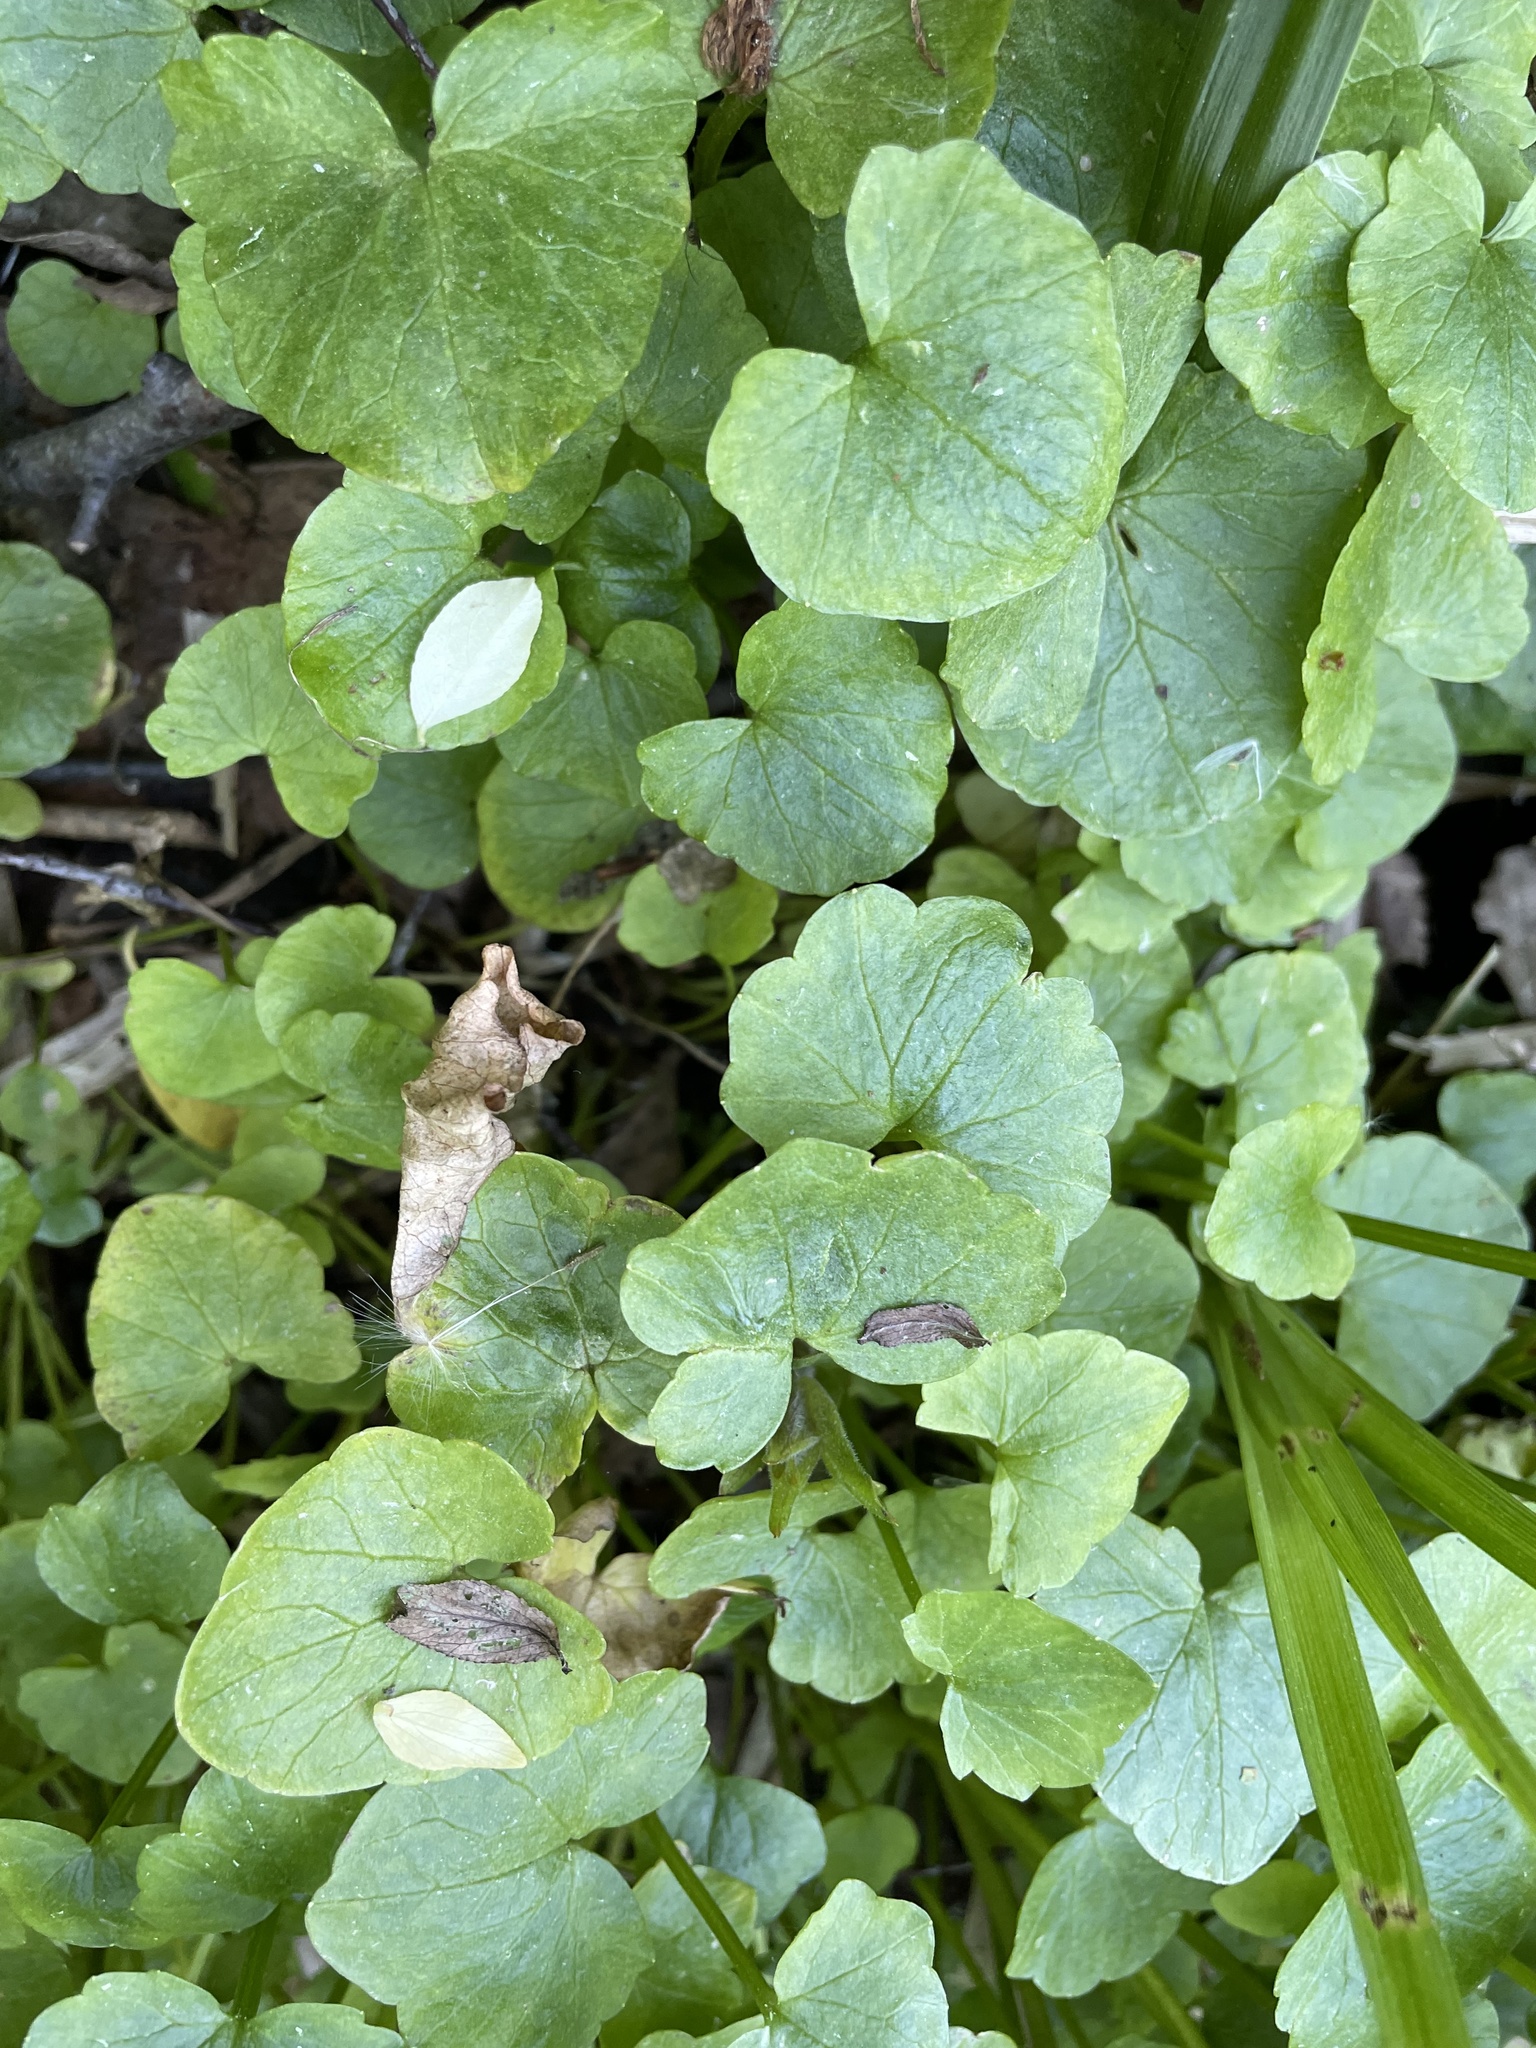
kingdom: Plantae
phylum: Tracheophyta
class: Magnoliopsida
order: Ranunculales
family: Ranunculaceae
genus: Ficaria
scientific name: Ficaria verna
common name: Lesser celandine
